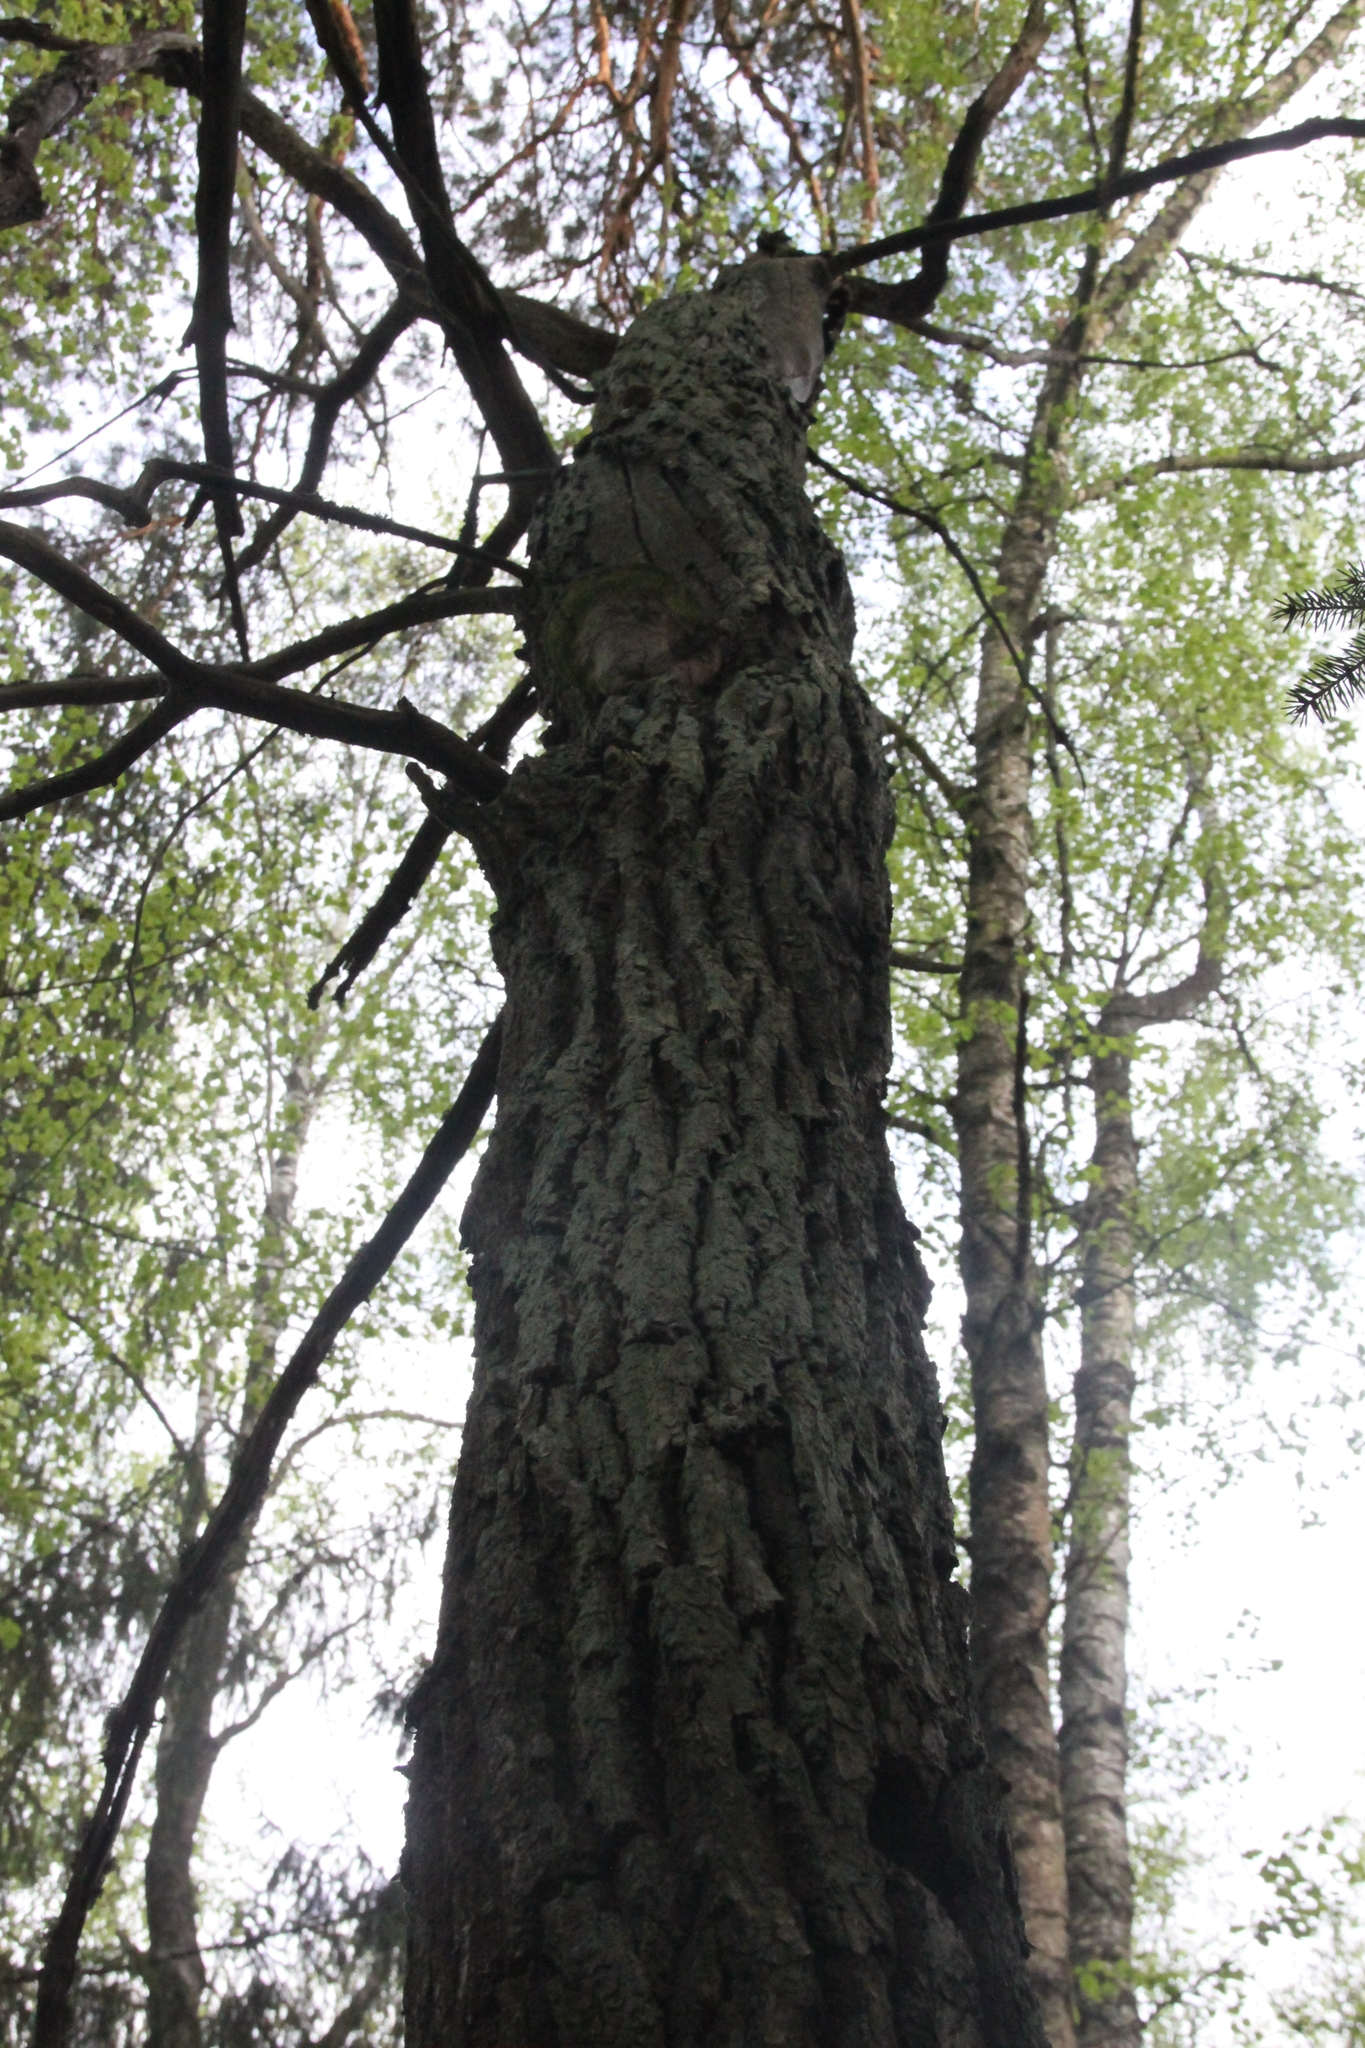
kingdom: Plantae
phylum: Tracheophyta
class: Magnoliopsida
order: Fagales
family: Fagaceae
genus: Quercus
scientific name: Quercus robur
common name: Pedunculate oak
